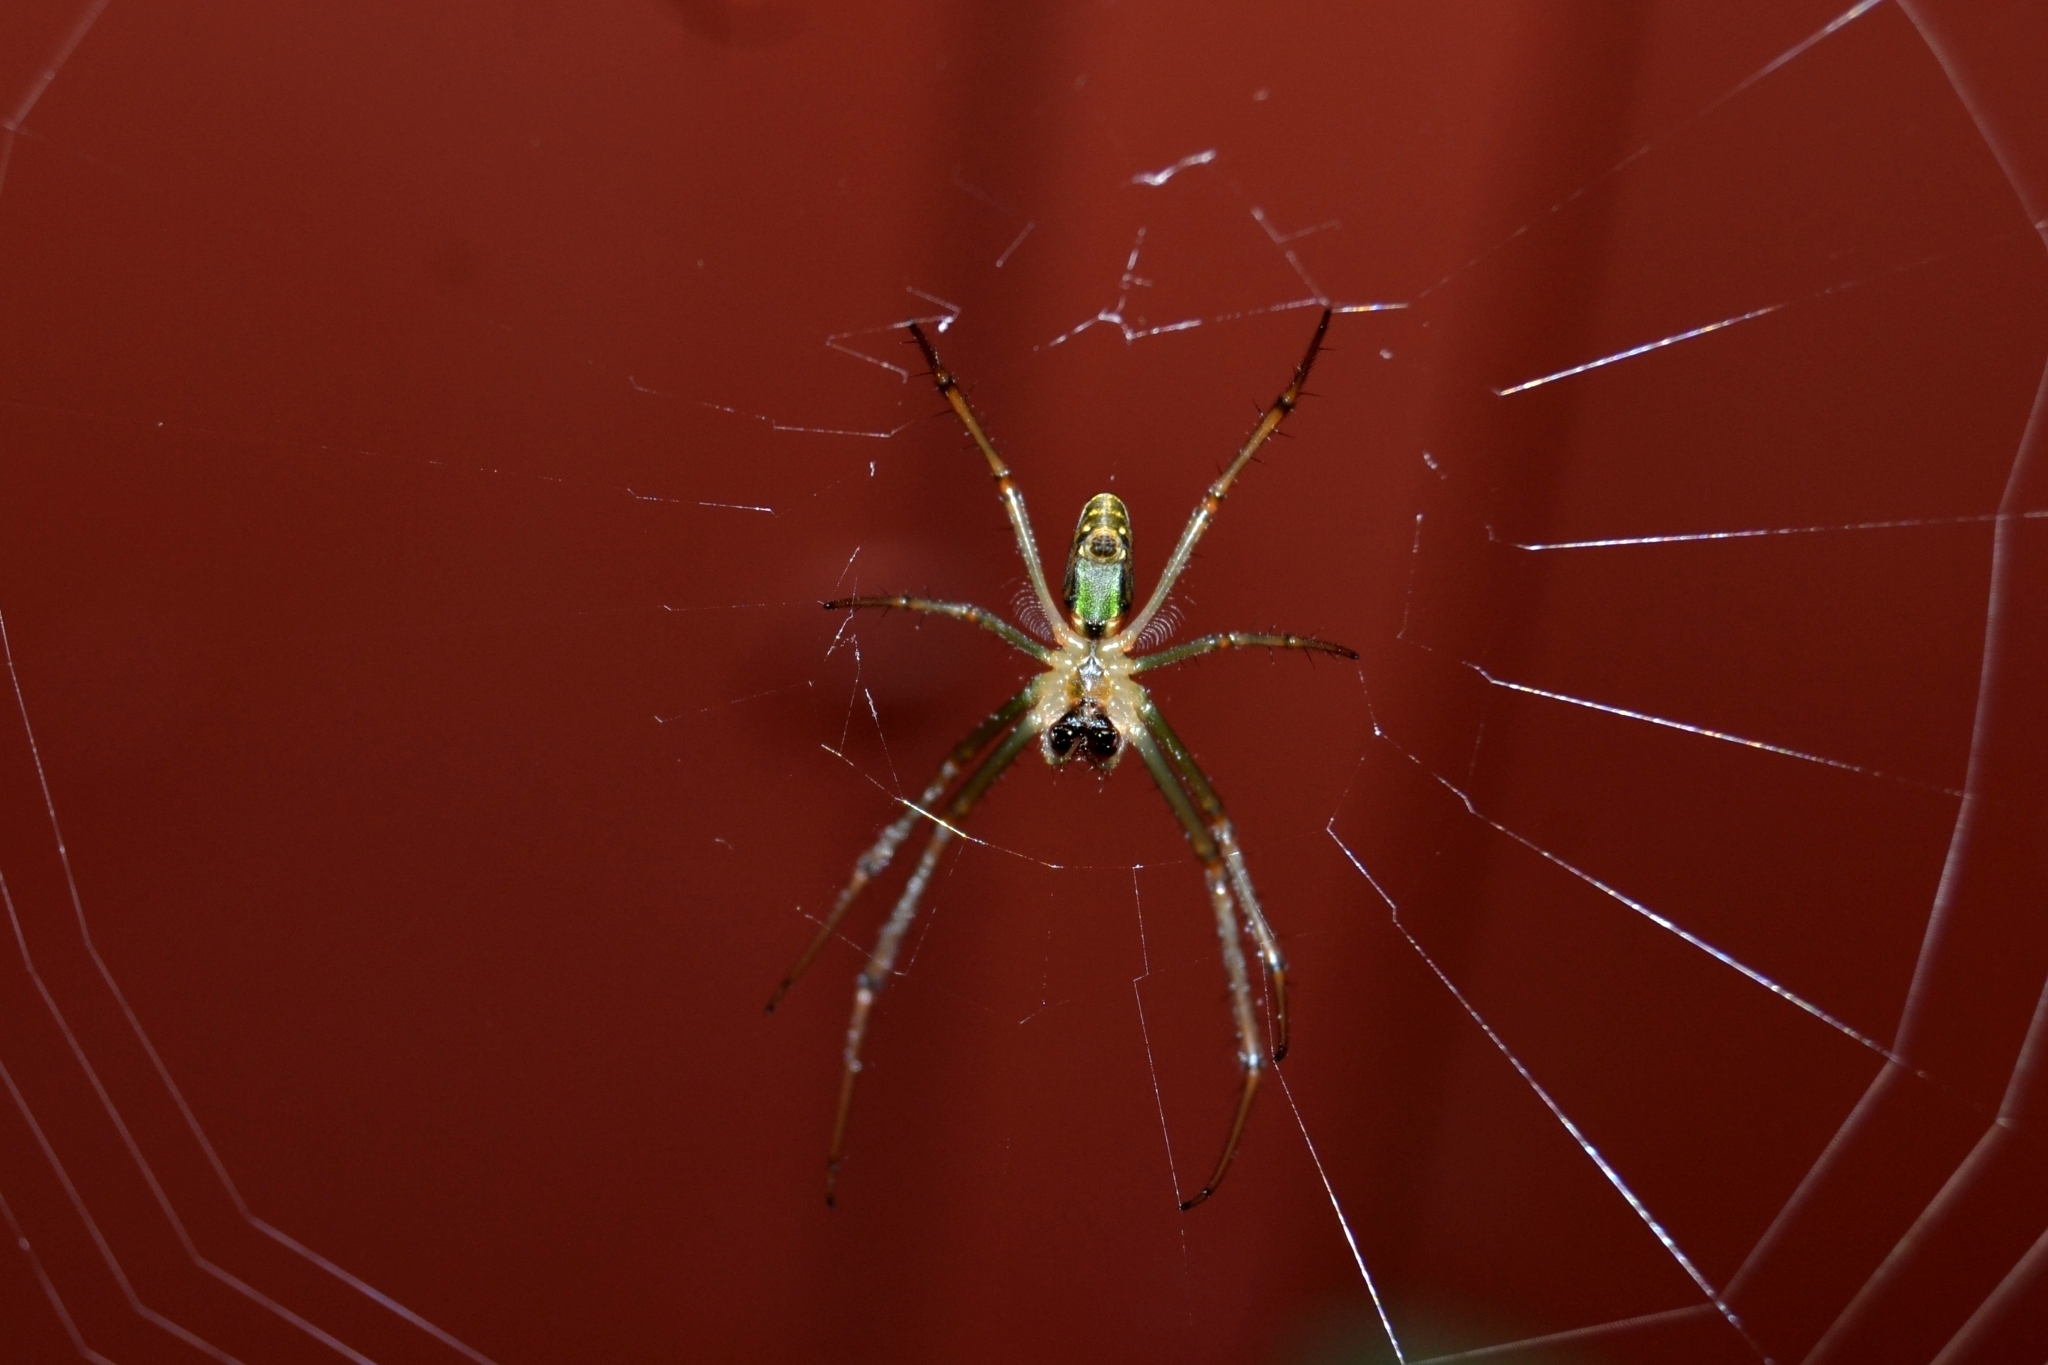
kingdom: Animalia
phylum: Arthropoda
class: Arachnida
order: Araneae
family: Tetragnathidae
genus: Leucauge
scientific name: Leucauge festiva
